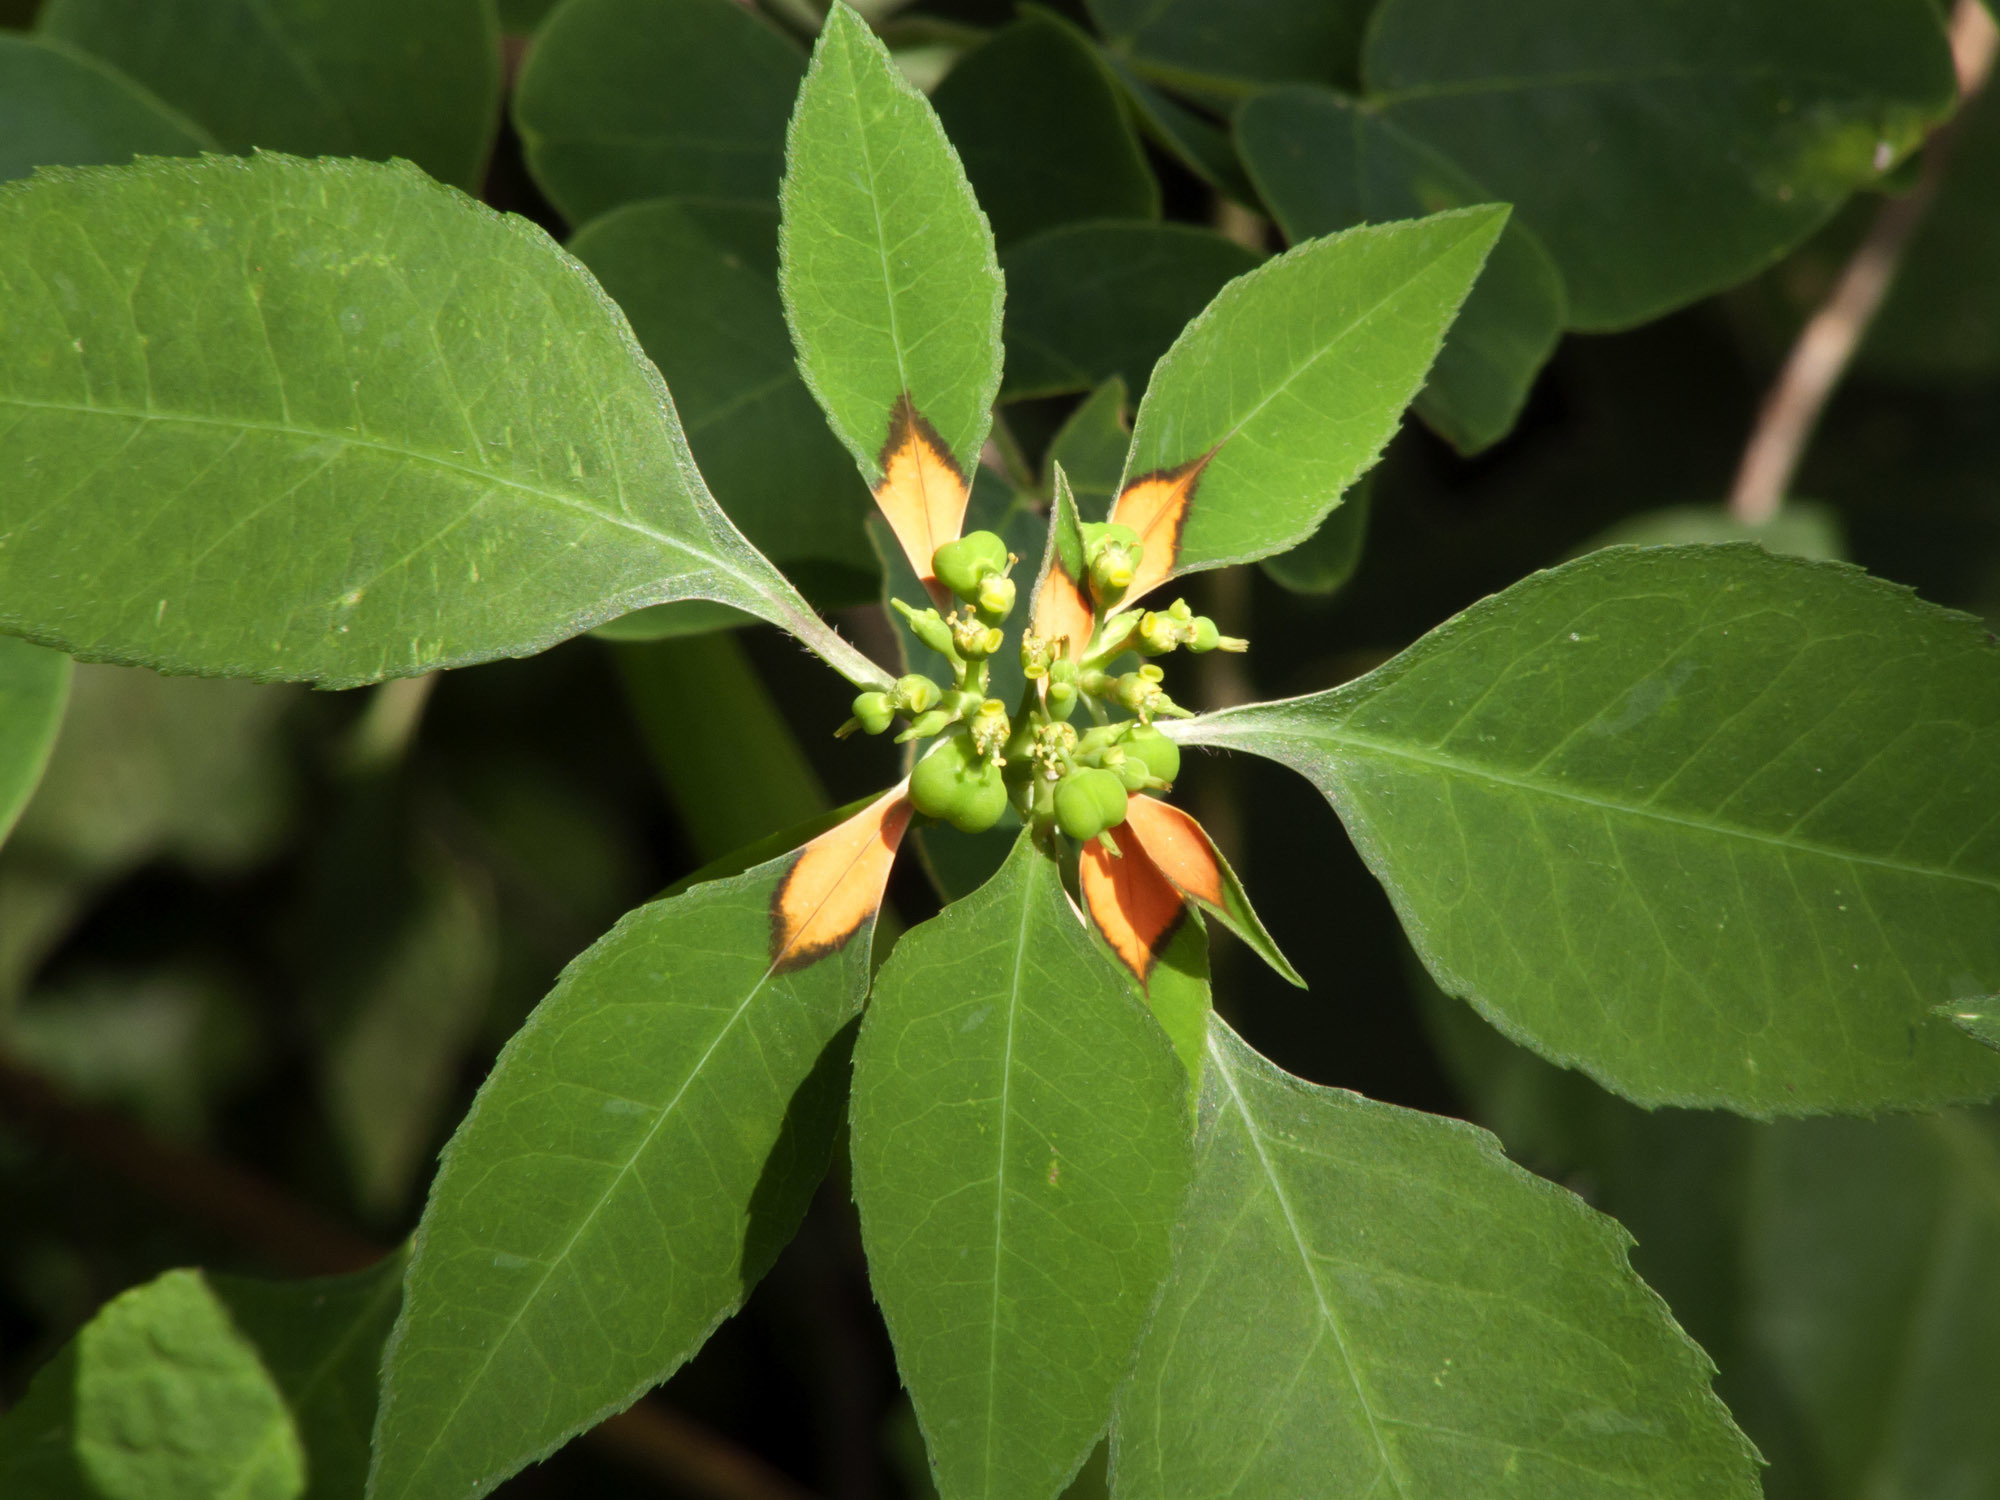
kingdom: Plantae
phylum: Tracheophyta
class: Magnoliopsida
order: Malpighiales
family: Euphorbiaceae
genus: Euphorbia
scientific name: Euphorbia heterophylla
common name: Mexican fireplant
